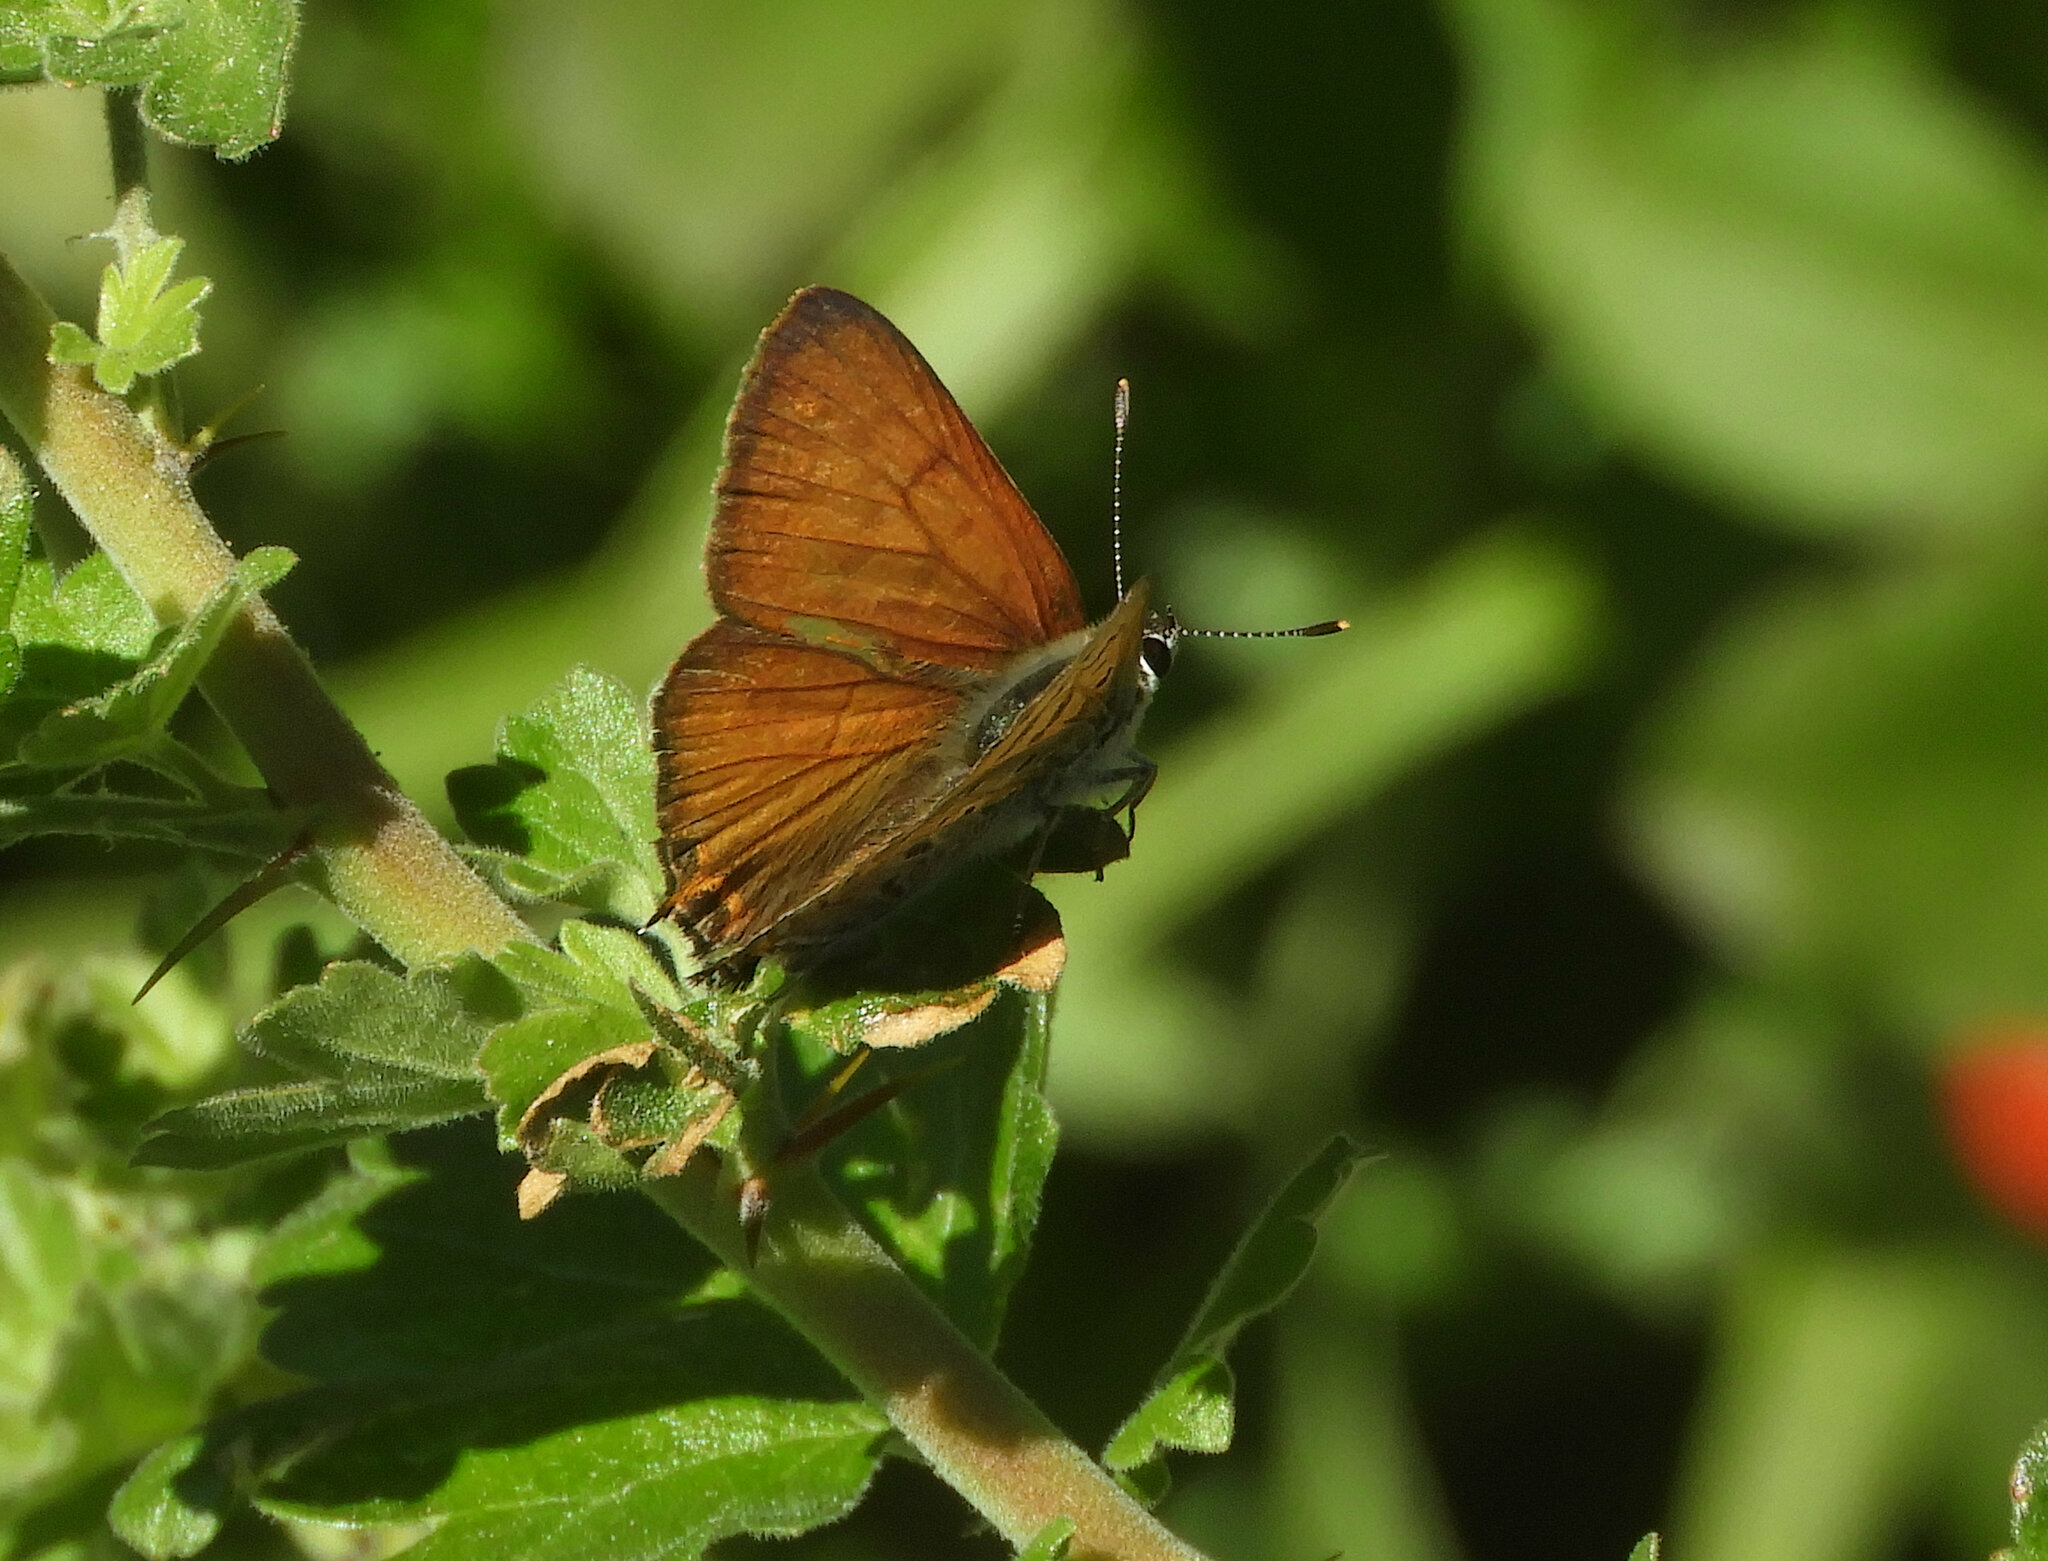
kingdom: Animalia
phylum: Arthropoda
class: Insecta
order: Lepidoptera
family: Lycaenidae
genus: Tharsalea
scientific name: Tharsalea arota
